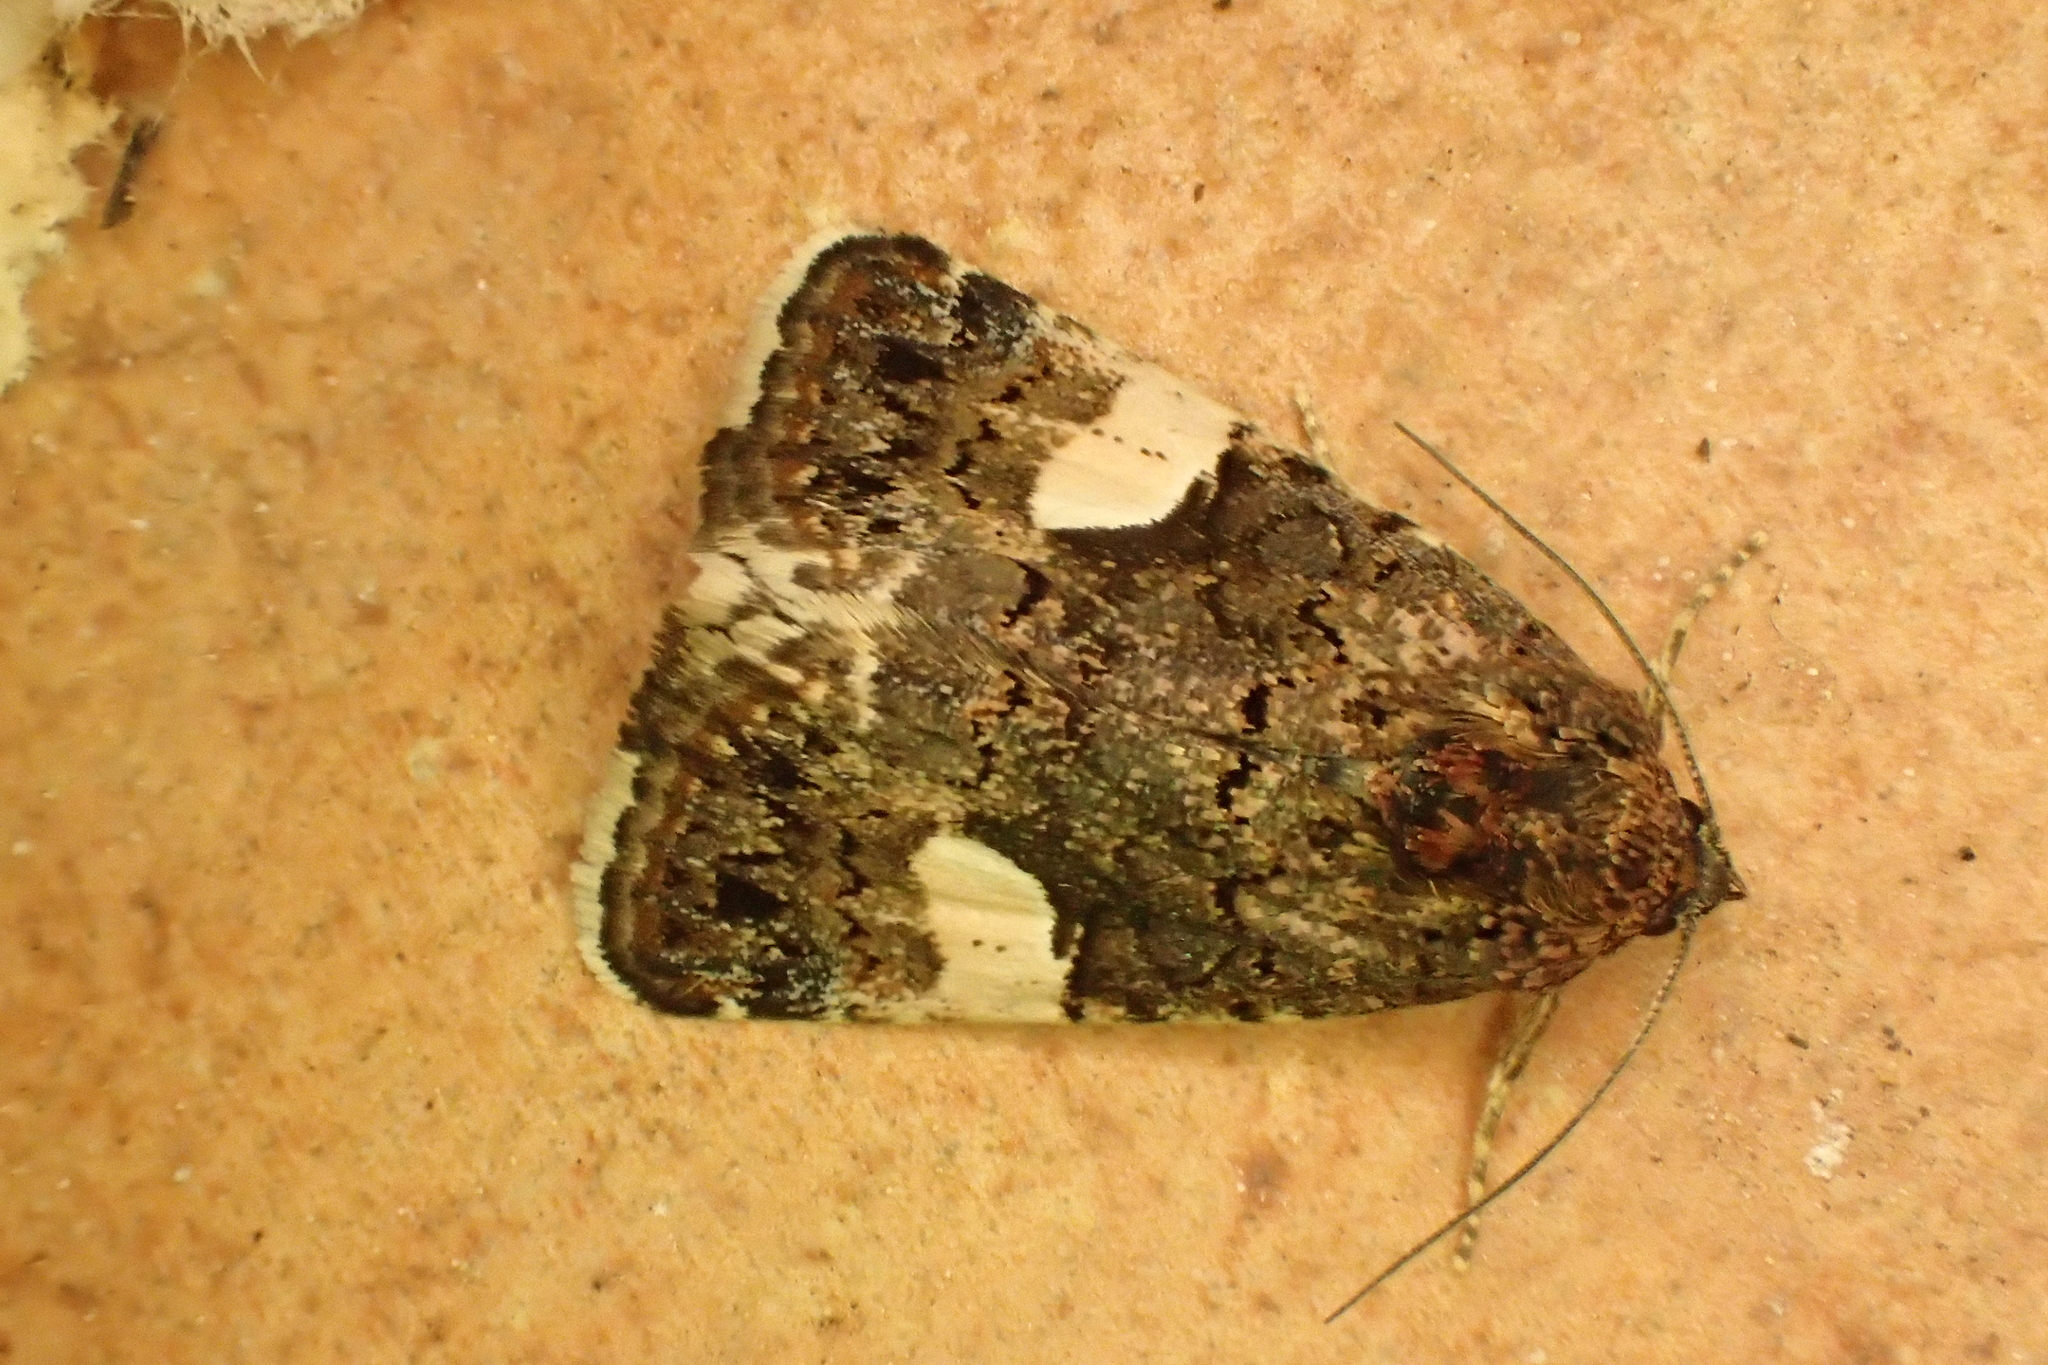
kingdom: Animalia
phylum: Arthropoda
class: Insecta
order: Lepidoptera
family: Erebidae
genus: Tyta
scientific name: Tyta luctuosa
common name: Four-spotted
